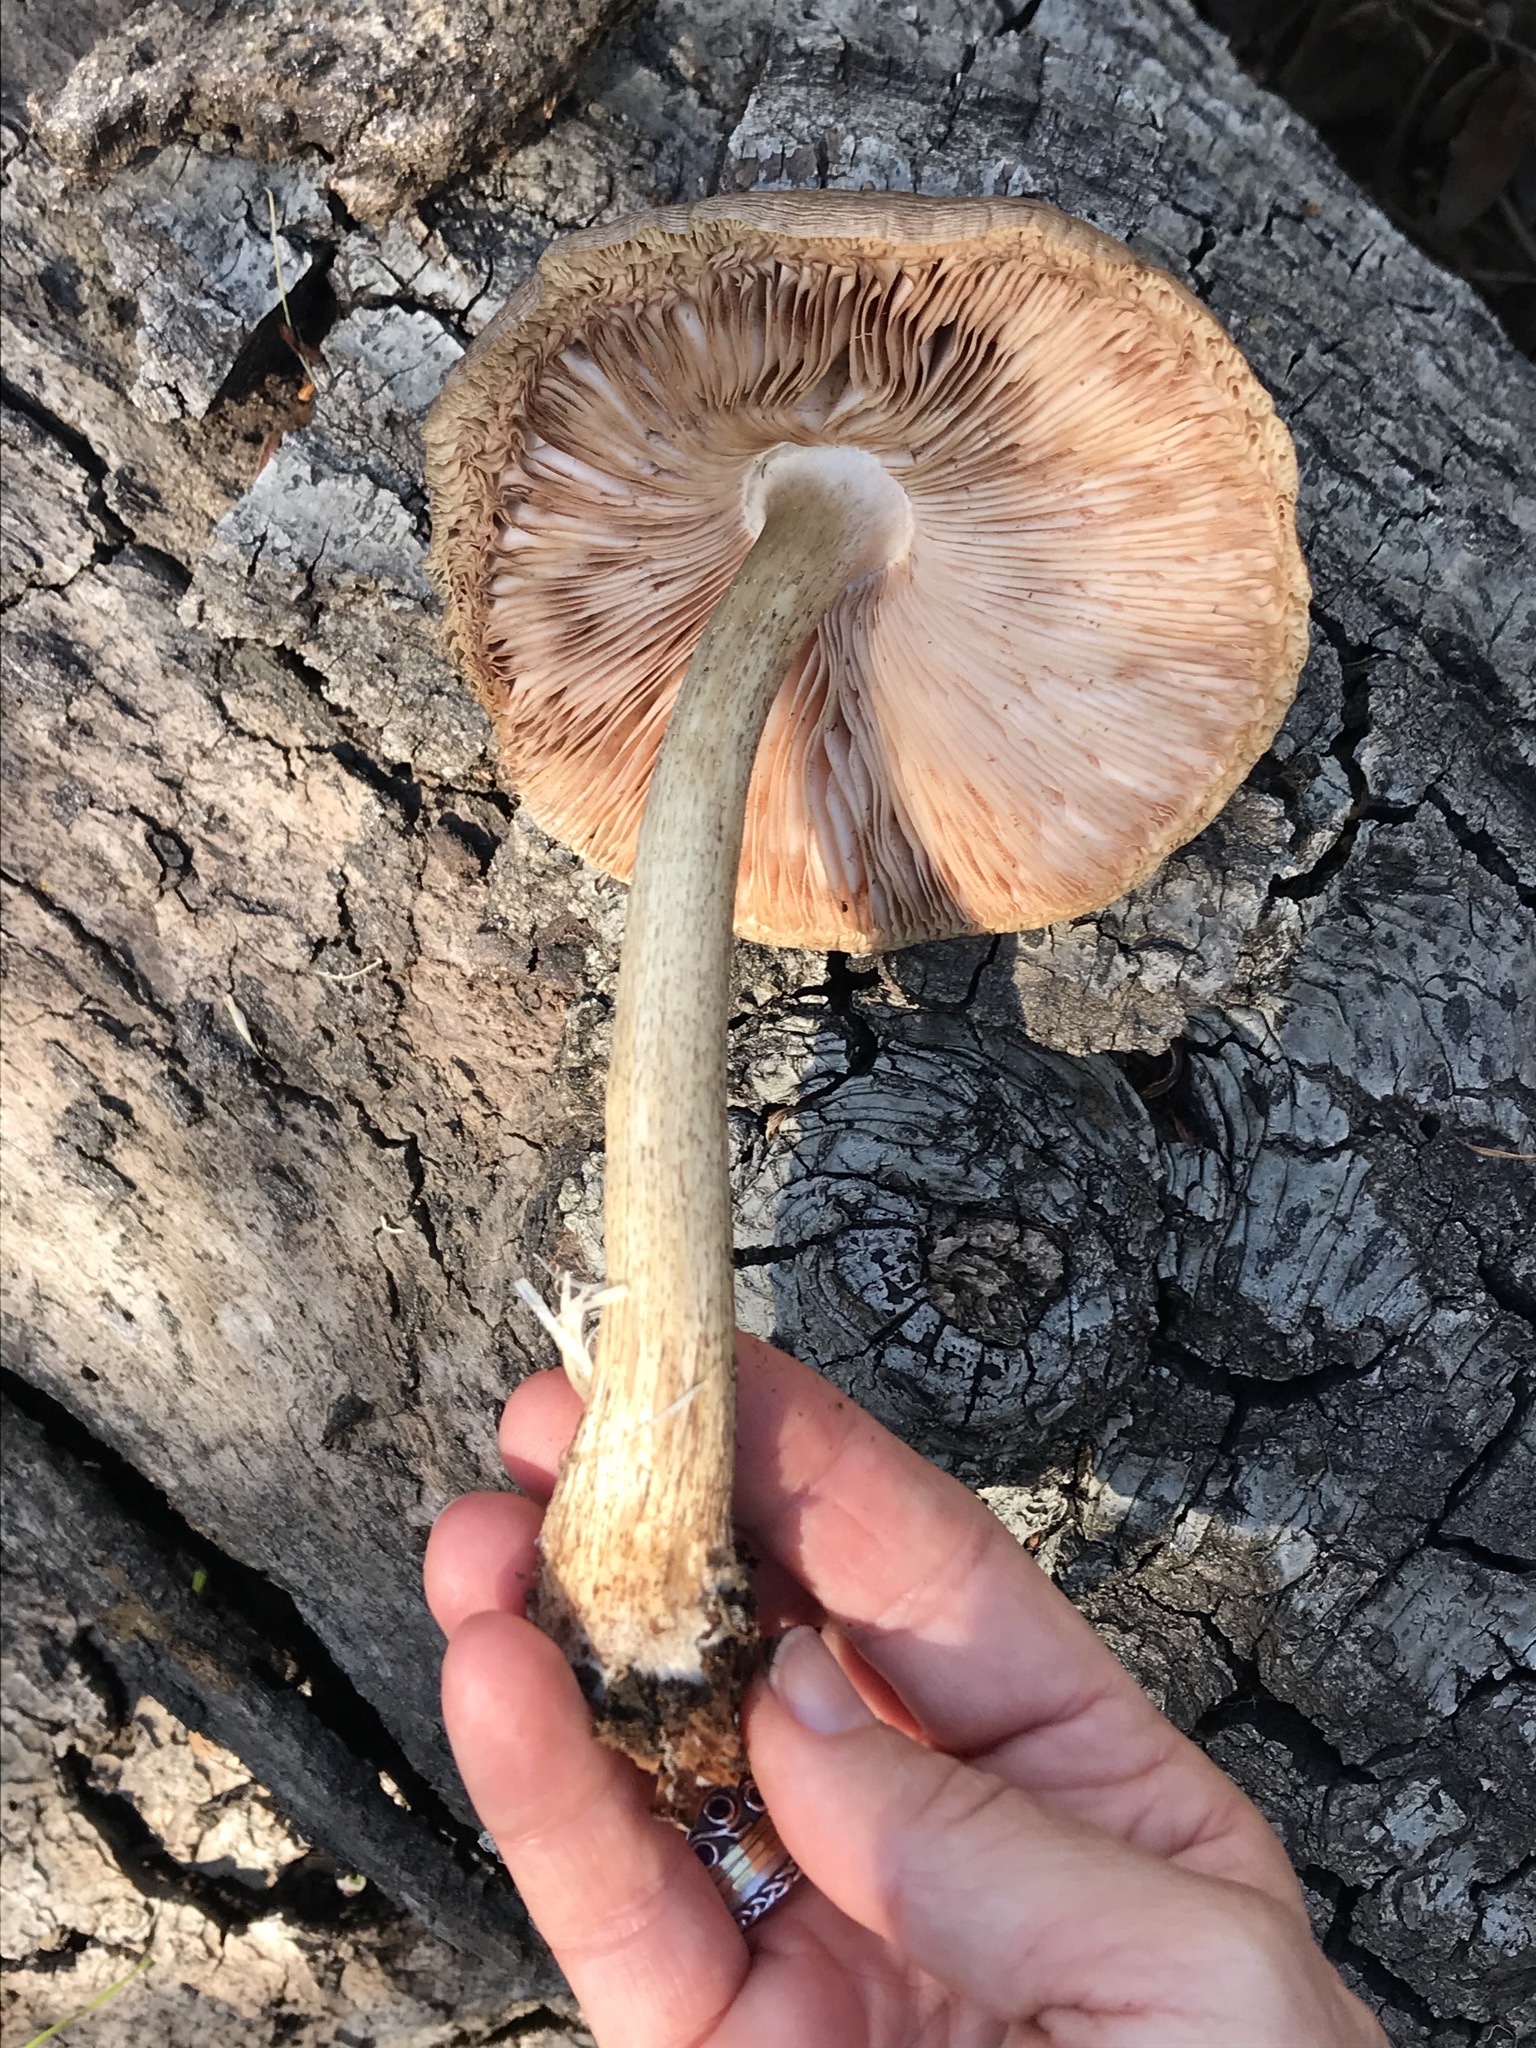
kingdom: Fungi
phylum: Basidiomycota
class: Agaricomycetes
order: Agaricales
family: Pluteaceae
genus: Pluteus
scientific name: Pluteus exilis
